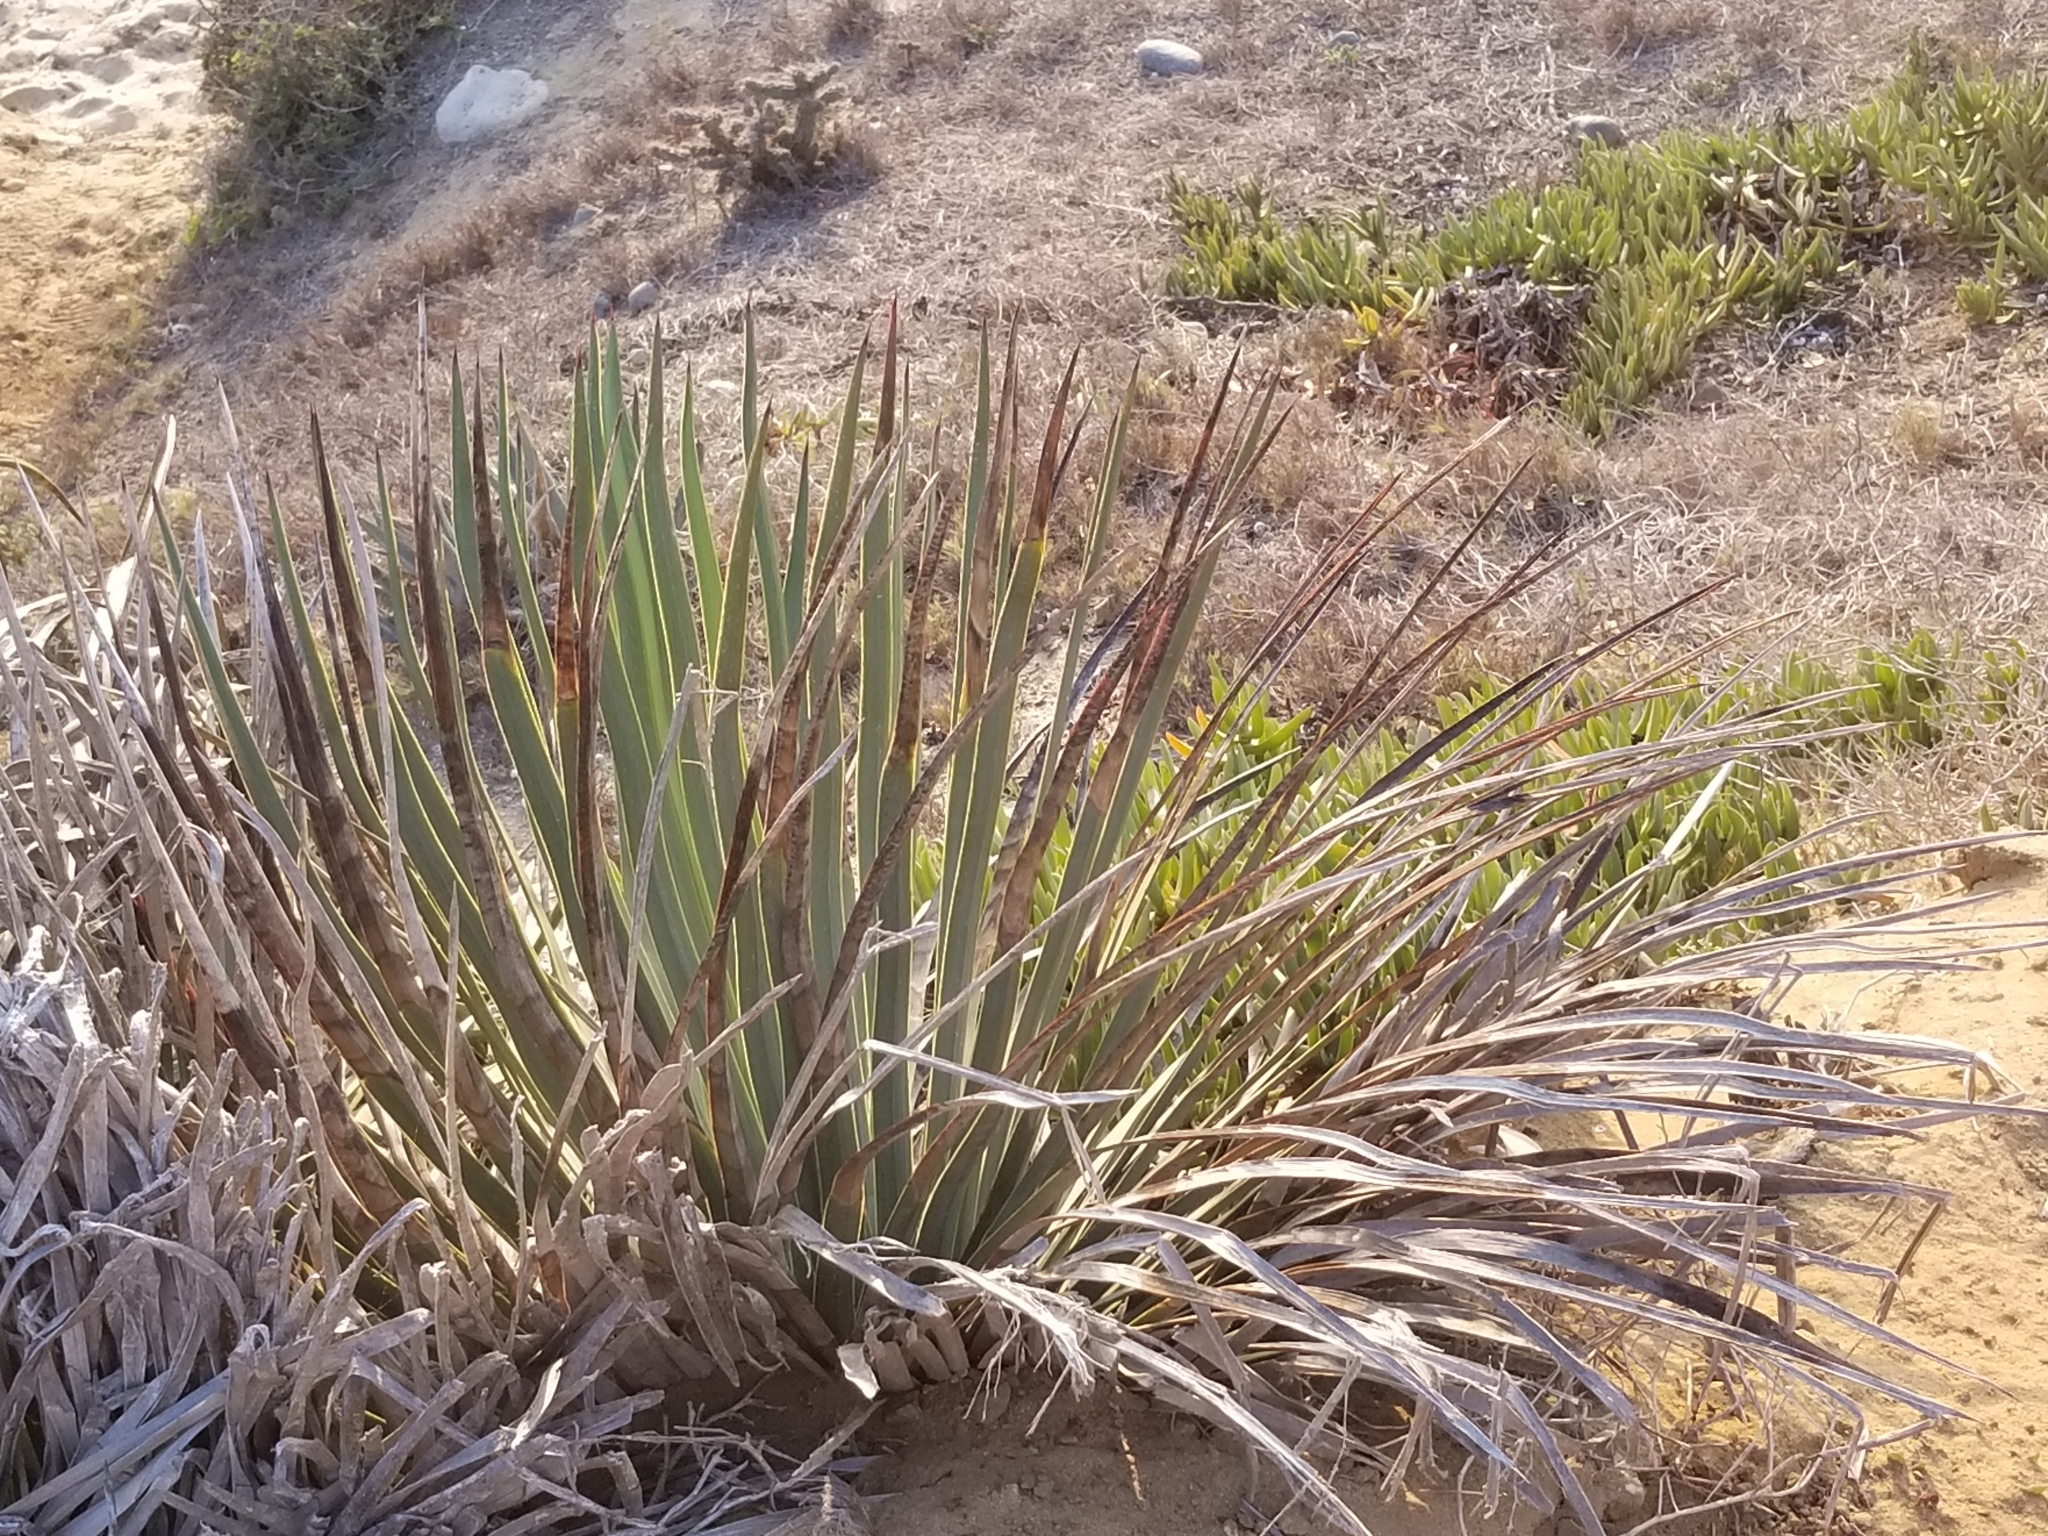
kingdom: Plantae
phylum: Tracheophyta
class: Liliopsida
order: Asparagales
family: Asparagaceae
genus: Hesperoyucca
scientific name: Hesperoyucca whipplei
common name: Our lord's-candle
